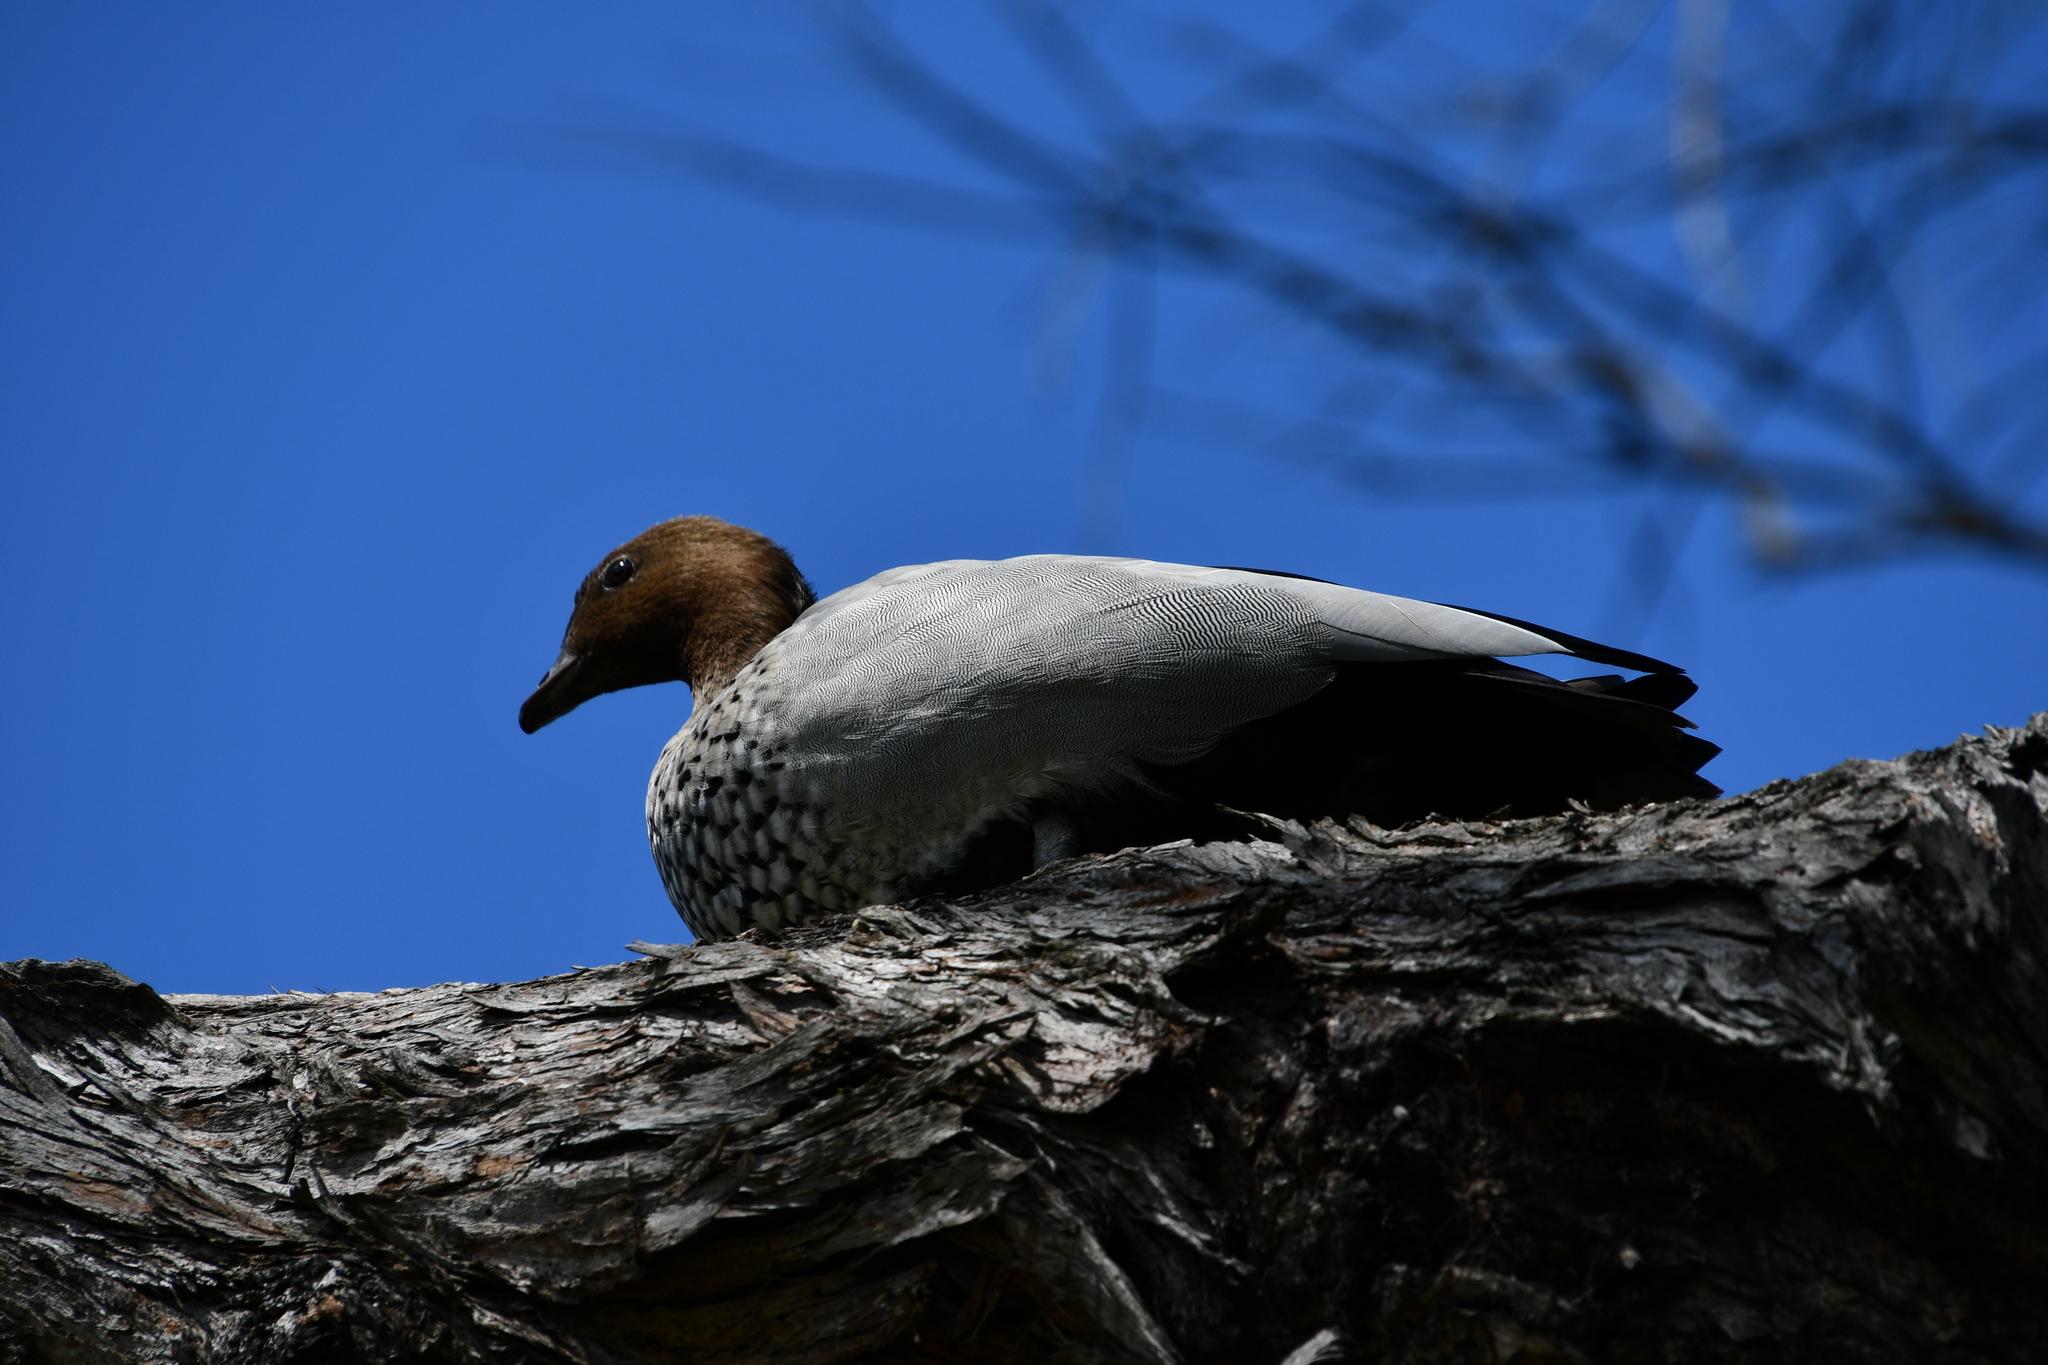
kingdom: Animalia
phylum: Chordata
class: Aves
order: Anseriformes
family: Anatidae
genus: Chenonetta
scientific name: Chenonetta jubata
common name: Maned duck
